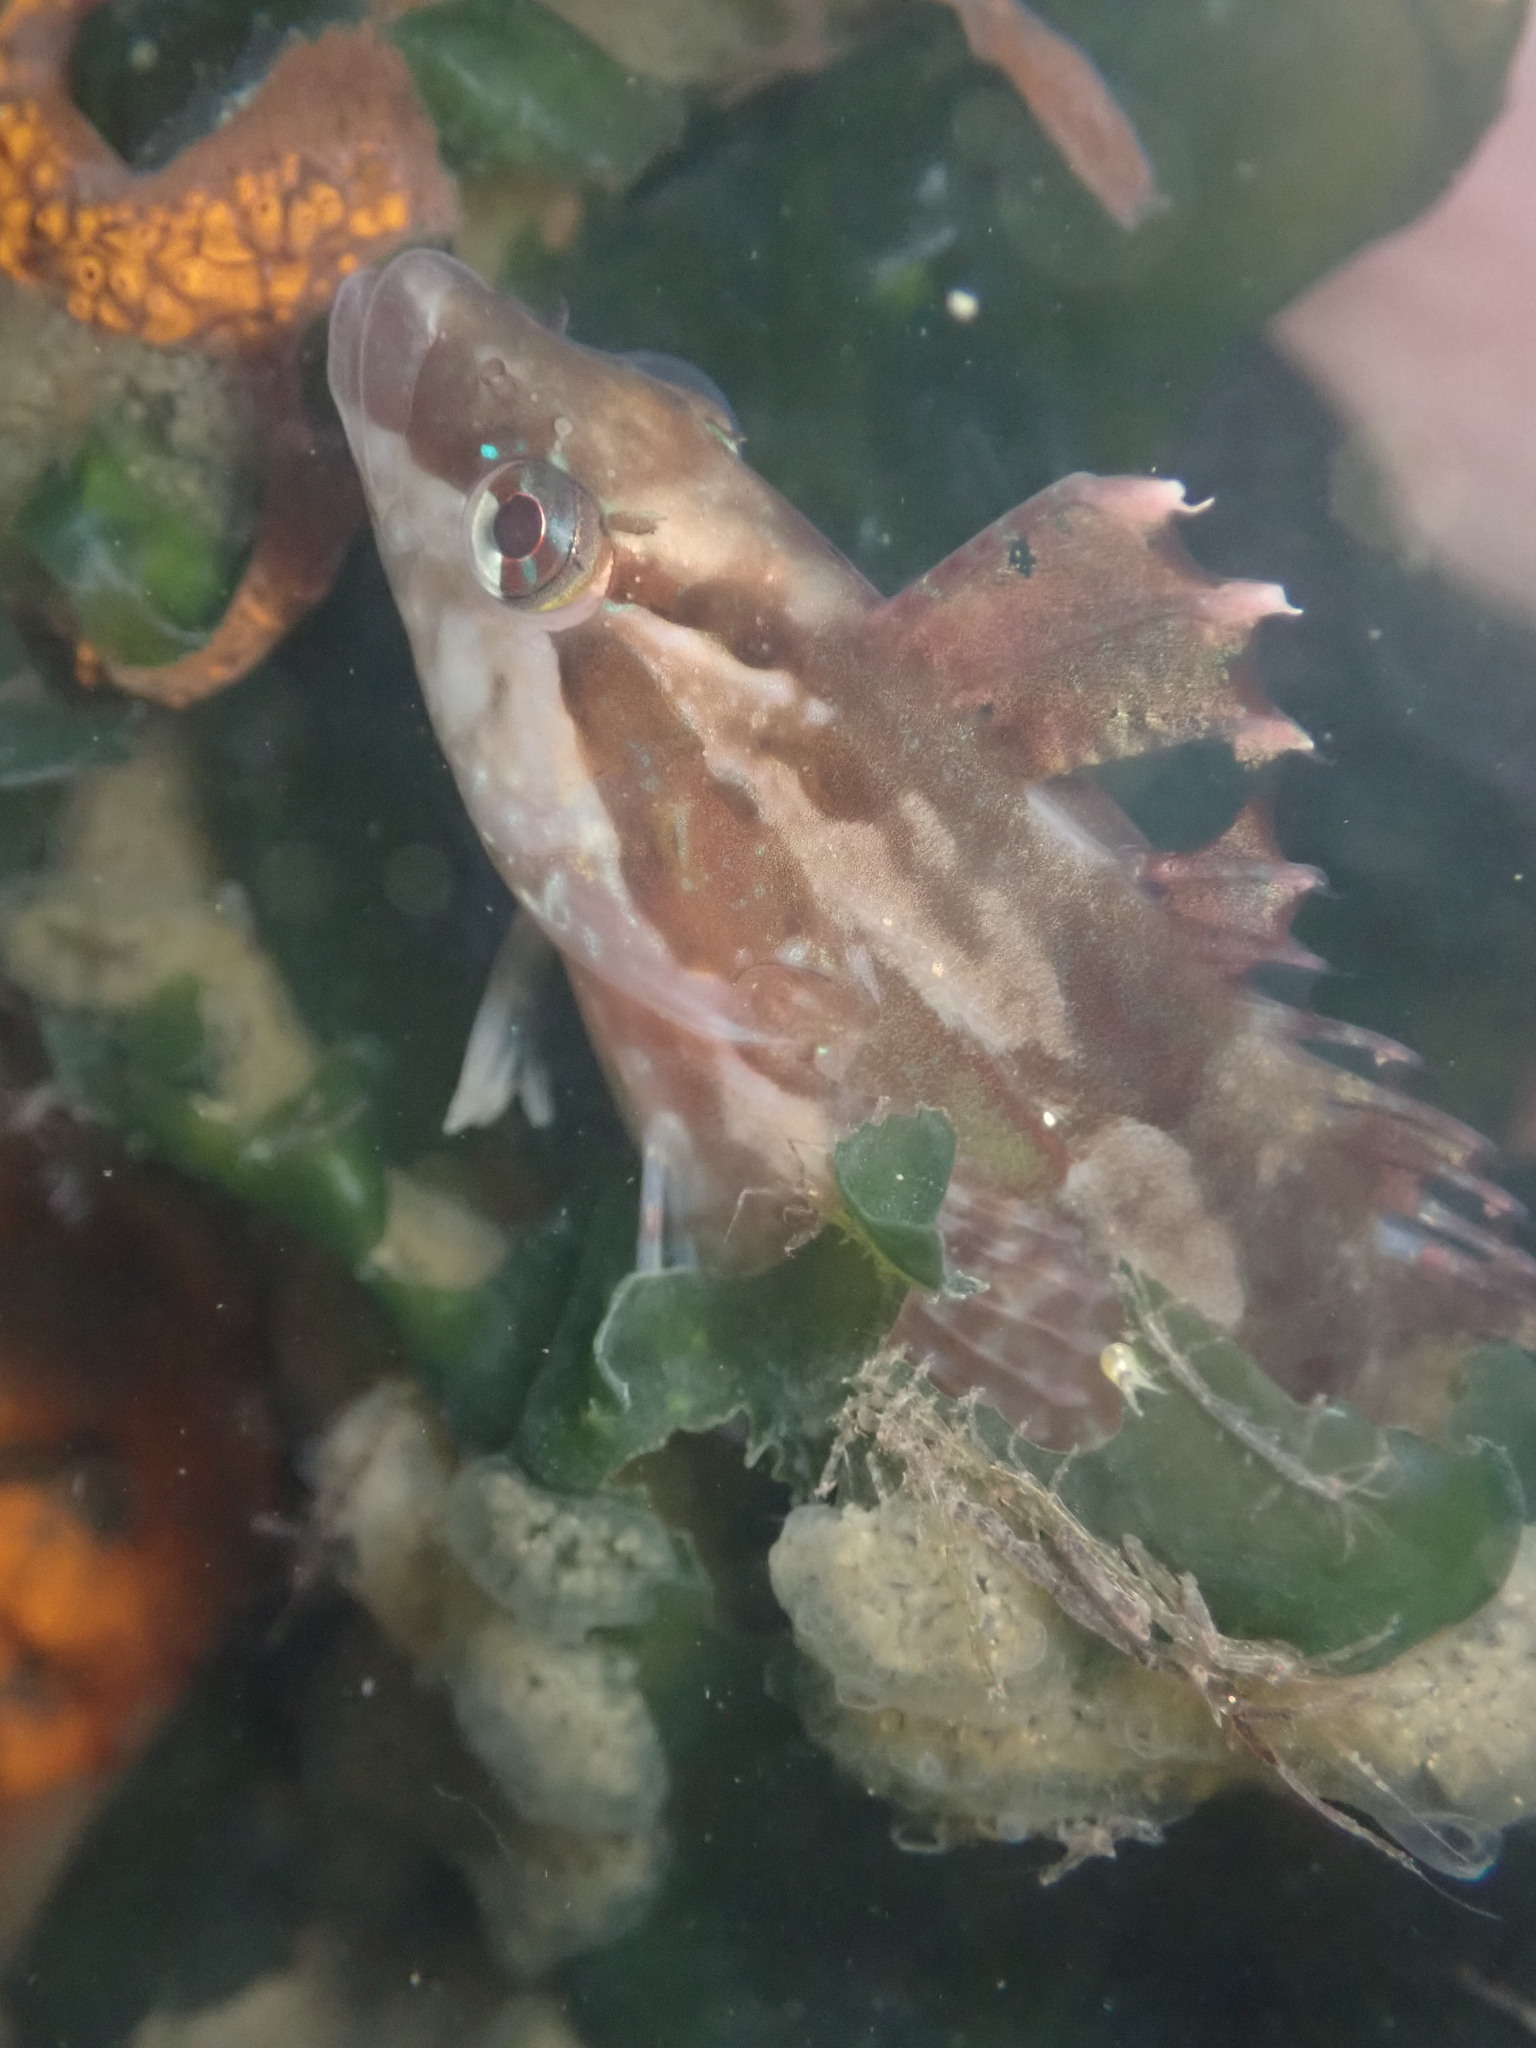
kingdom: Animalia
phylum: Chordata
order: Perciformes
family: Clinidae
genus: Gibbonsia
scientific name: Gibbonsia metzi
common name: Striped kelpfish
